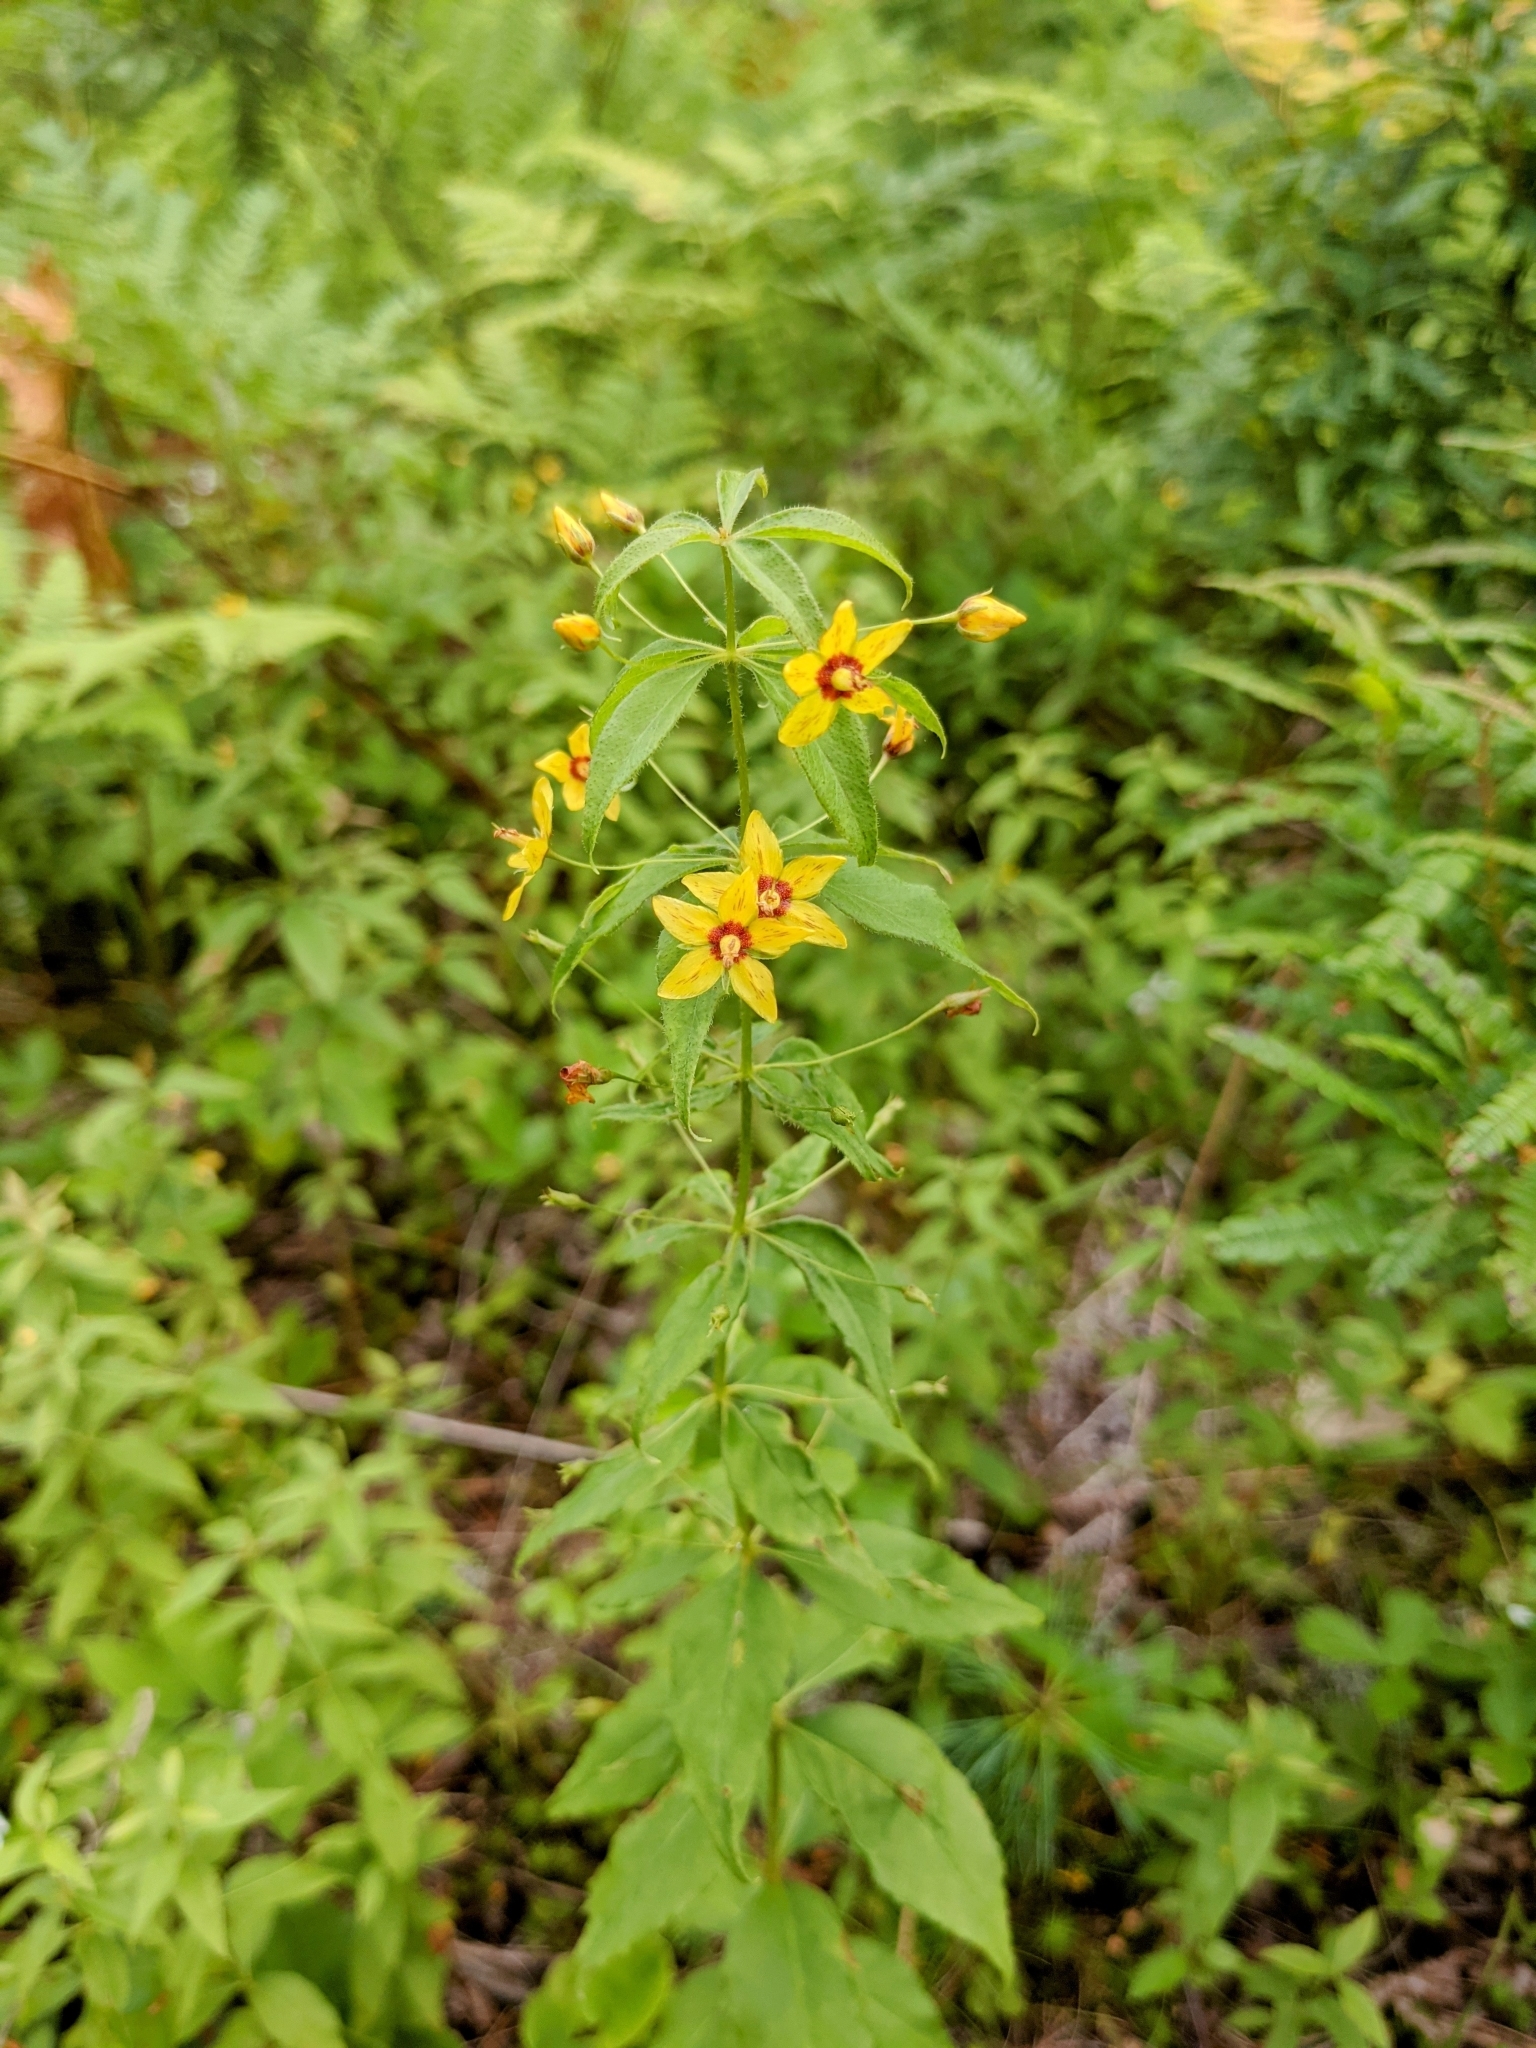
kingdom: Plantae
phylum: Tracheophyta
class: Magnoliopsida
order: Ericales
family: Primulaceae
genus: Lysimachia
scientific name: Lysimachia quadrifolia
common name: Whorled loosestrife
